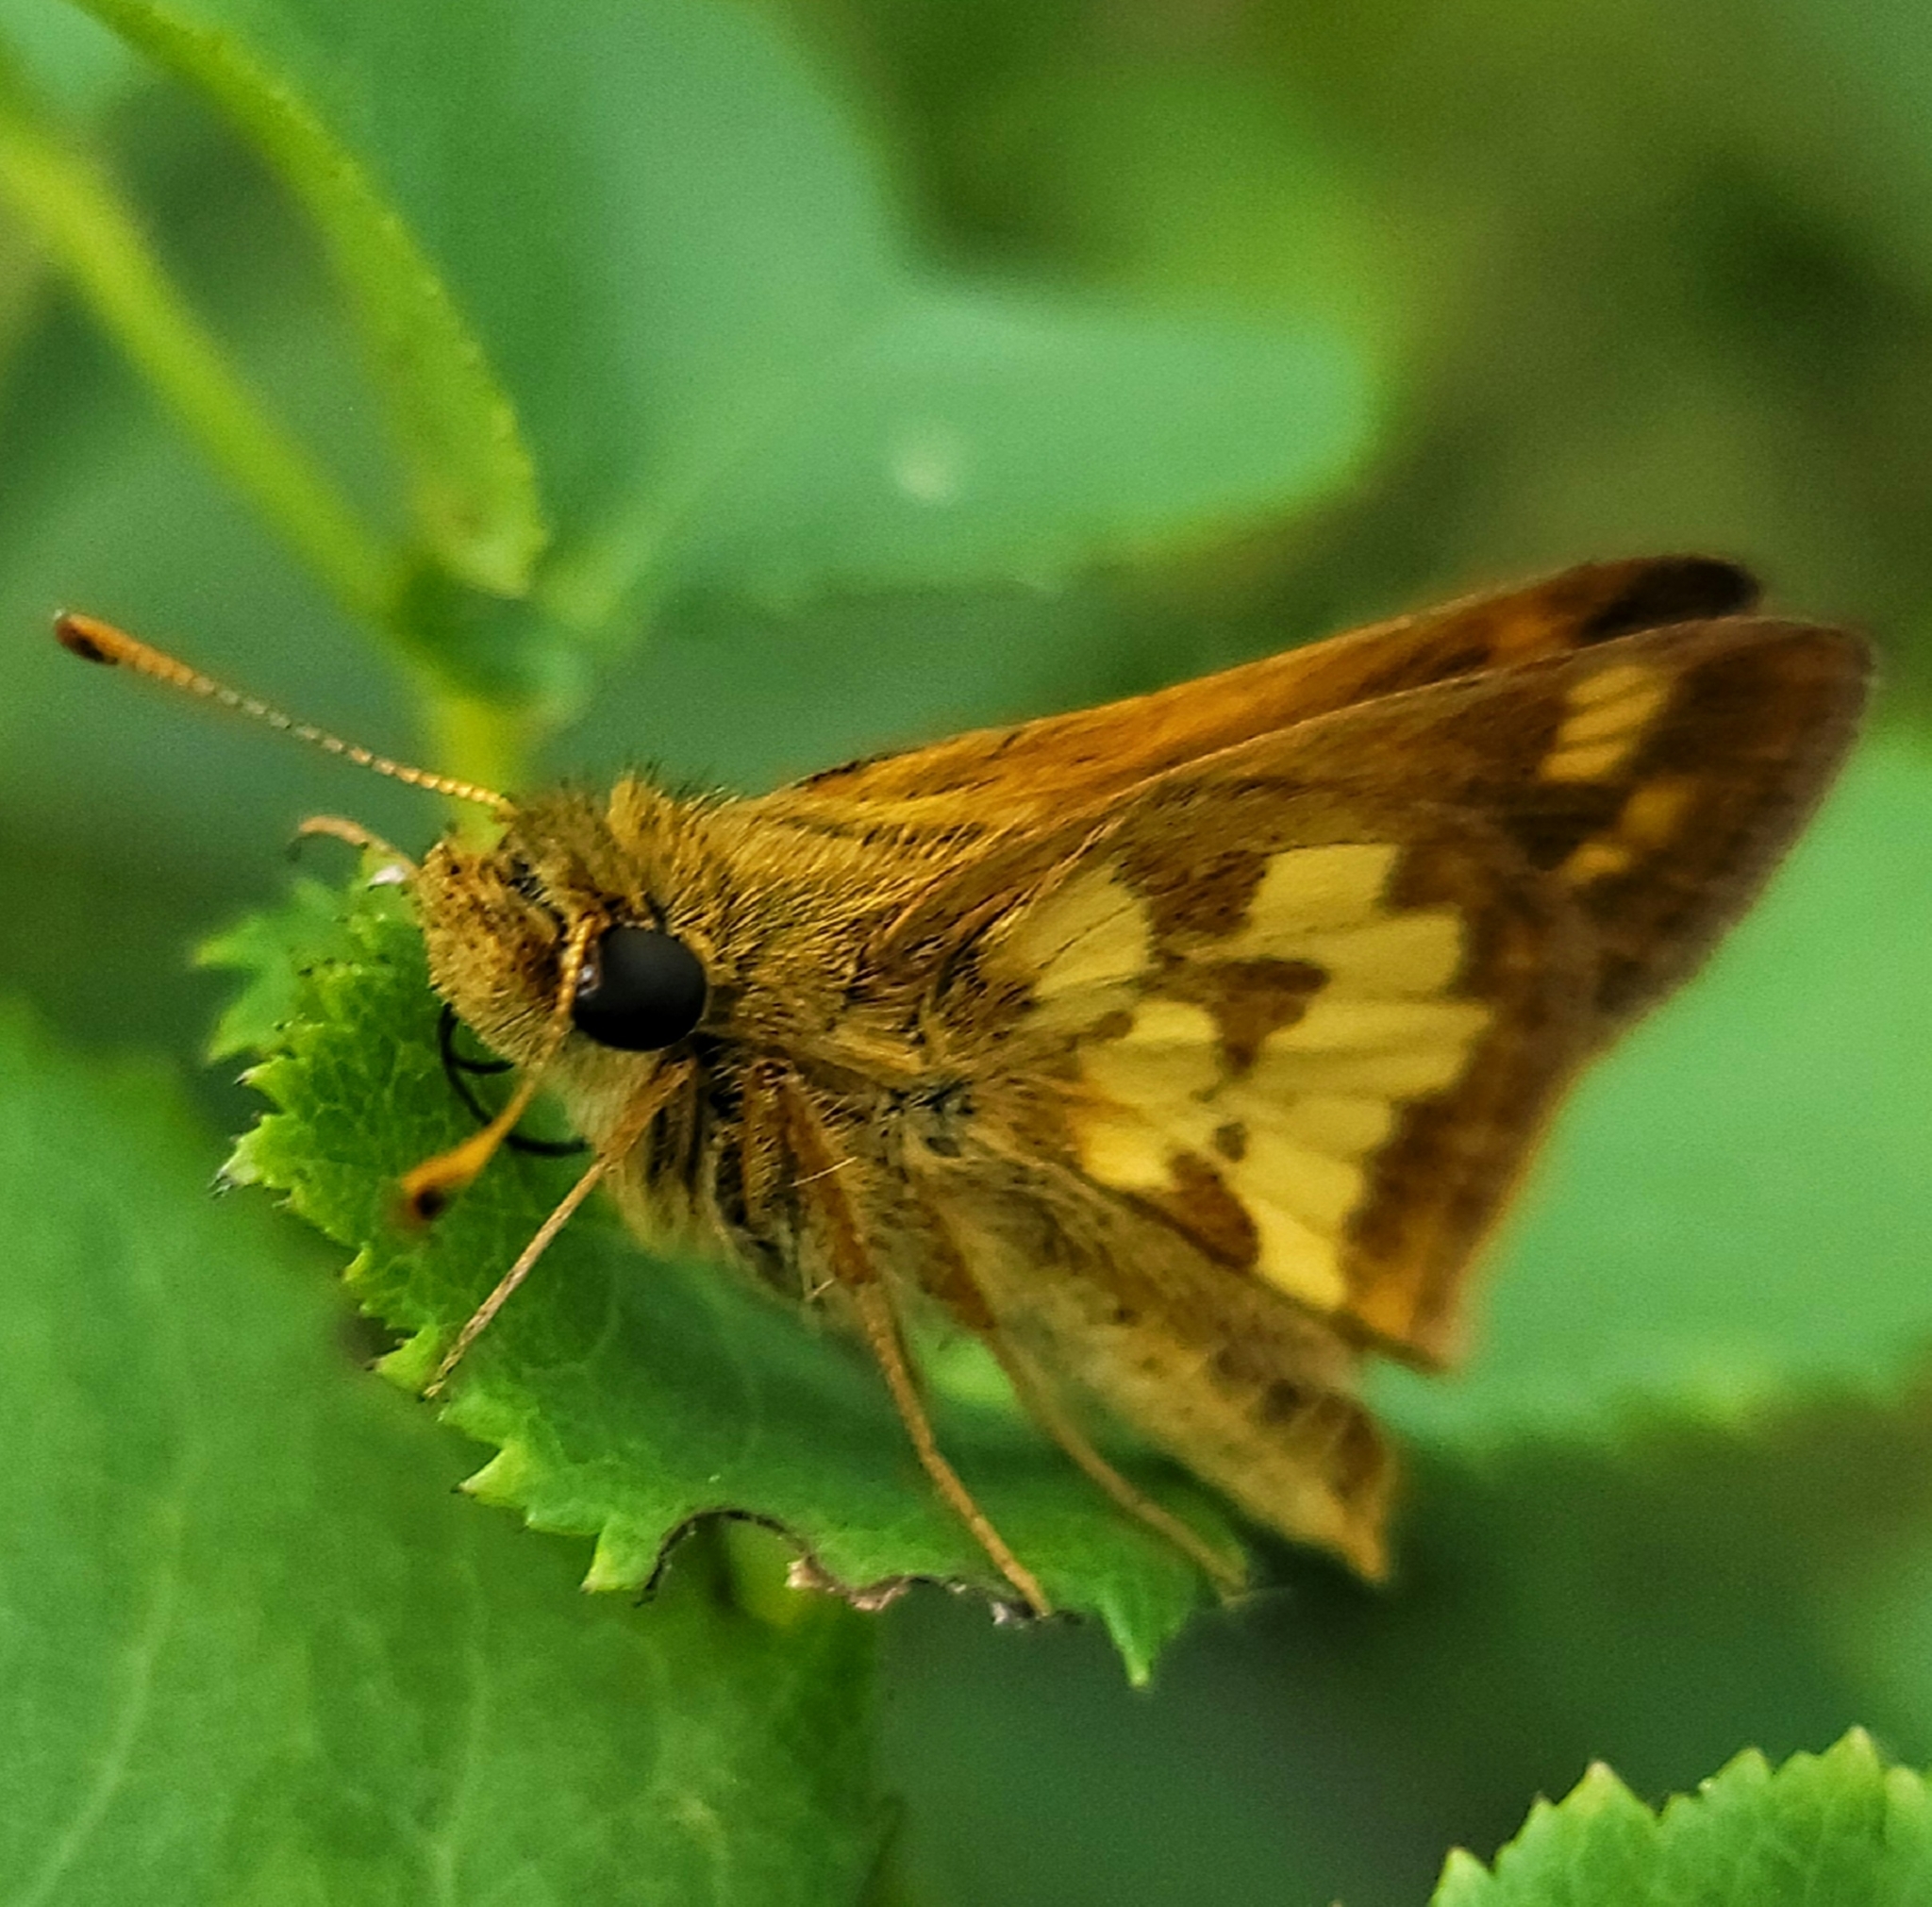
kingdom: Animalia
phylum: Arthropoda
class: Insecta
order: Lepidoptera
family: Hesperiidae
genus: Polites
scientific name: Polites coras
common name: Peck's skipper
